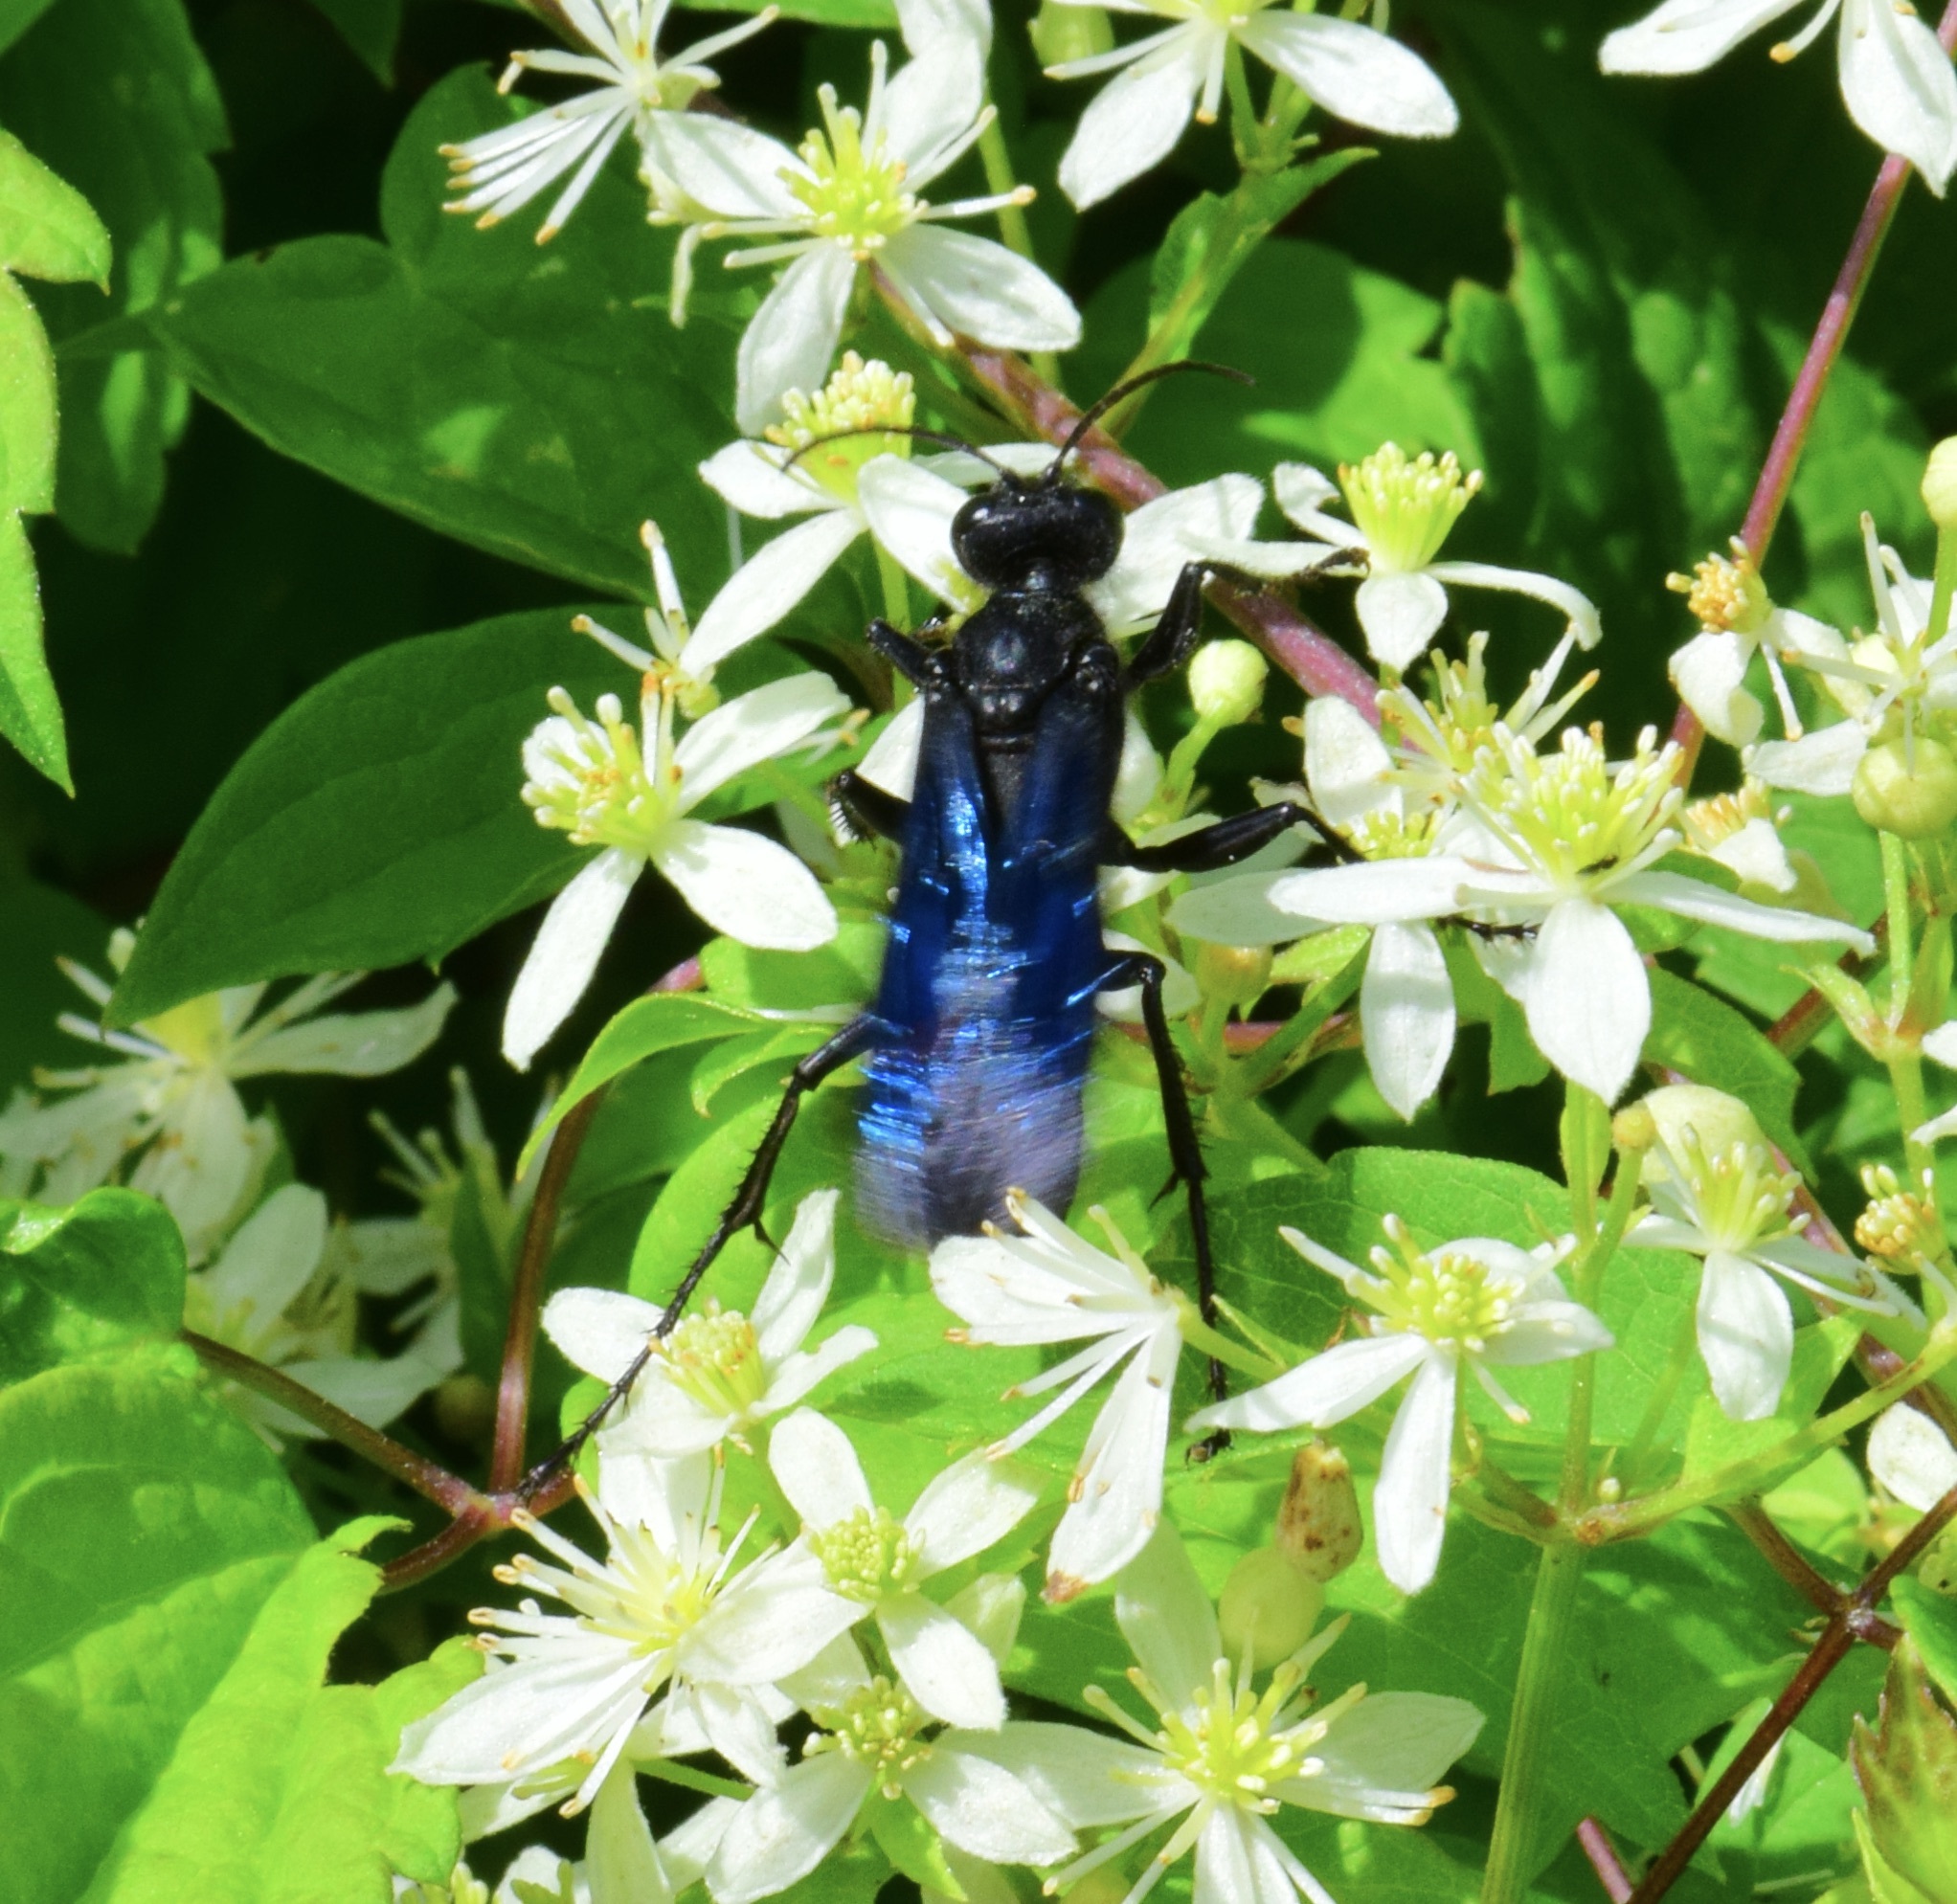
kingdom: Animalia
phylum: Arthropoda
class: Insecta
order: Hymenoptera
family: Sphecidae
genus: Sphex
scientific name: Sphex pensylvanicus
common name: Great black digger wasp
